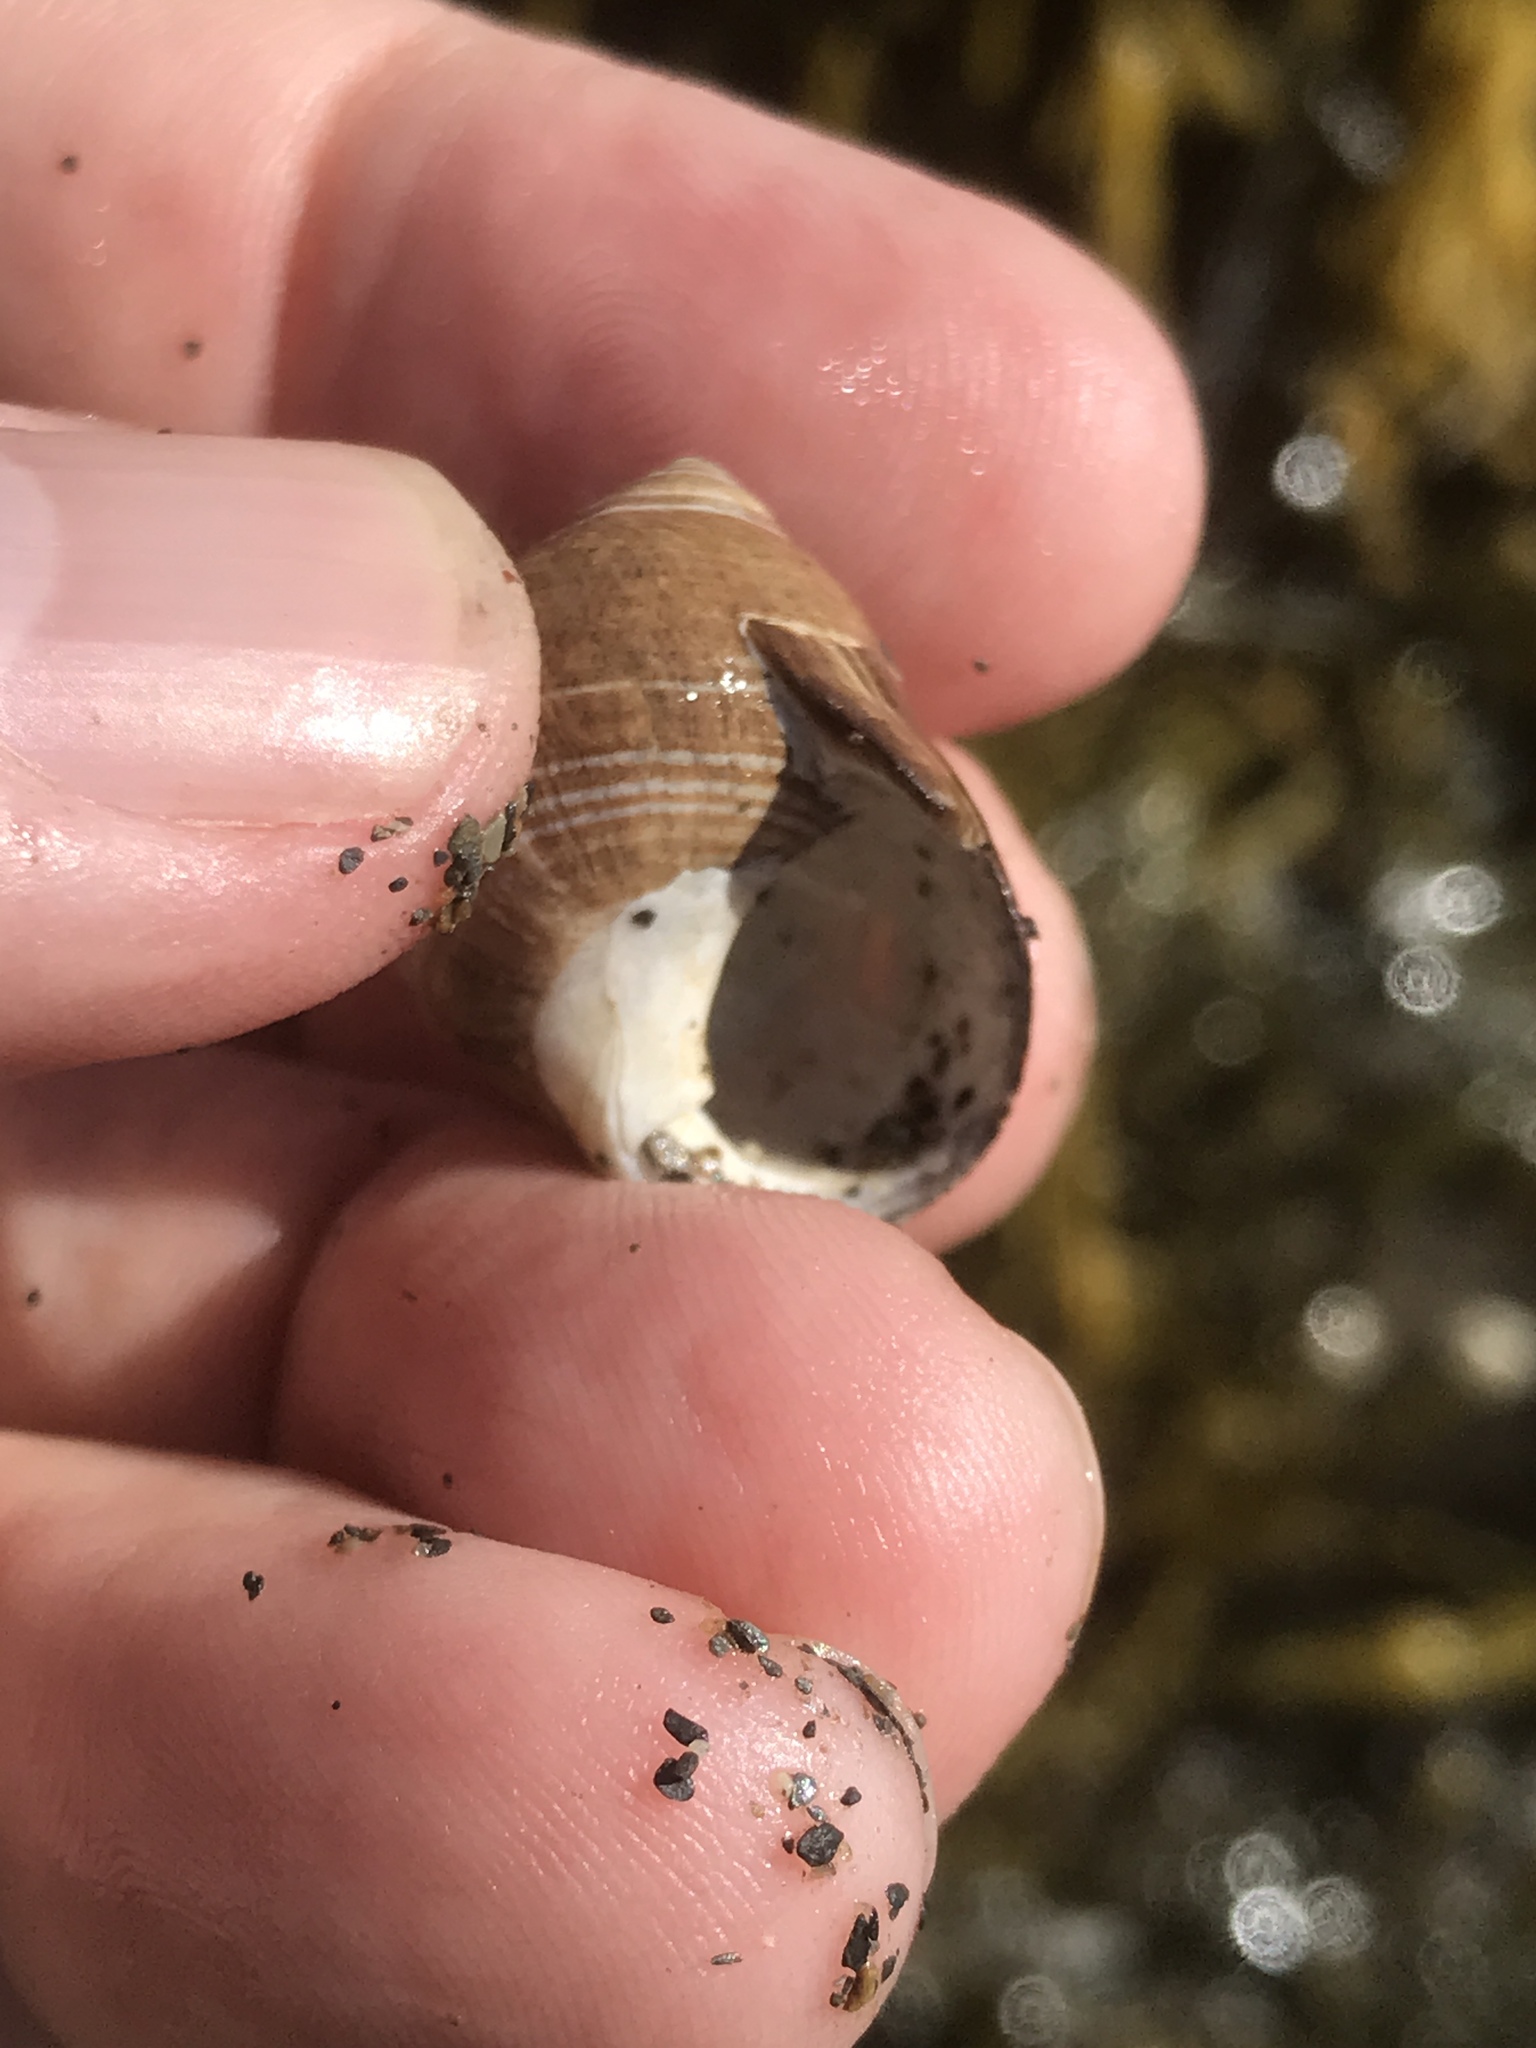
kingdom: Animalia
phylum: Mollusca
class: Gastropoda
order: Littorinimorpha
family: Littorinidae
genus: Littorina
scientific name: Littorina littorea
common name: Common periwinkle
